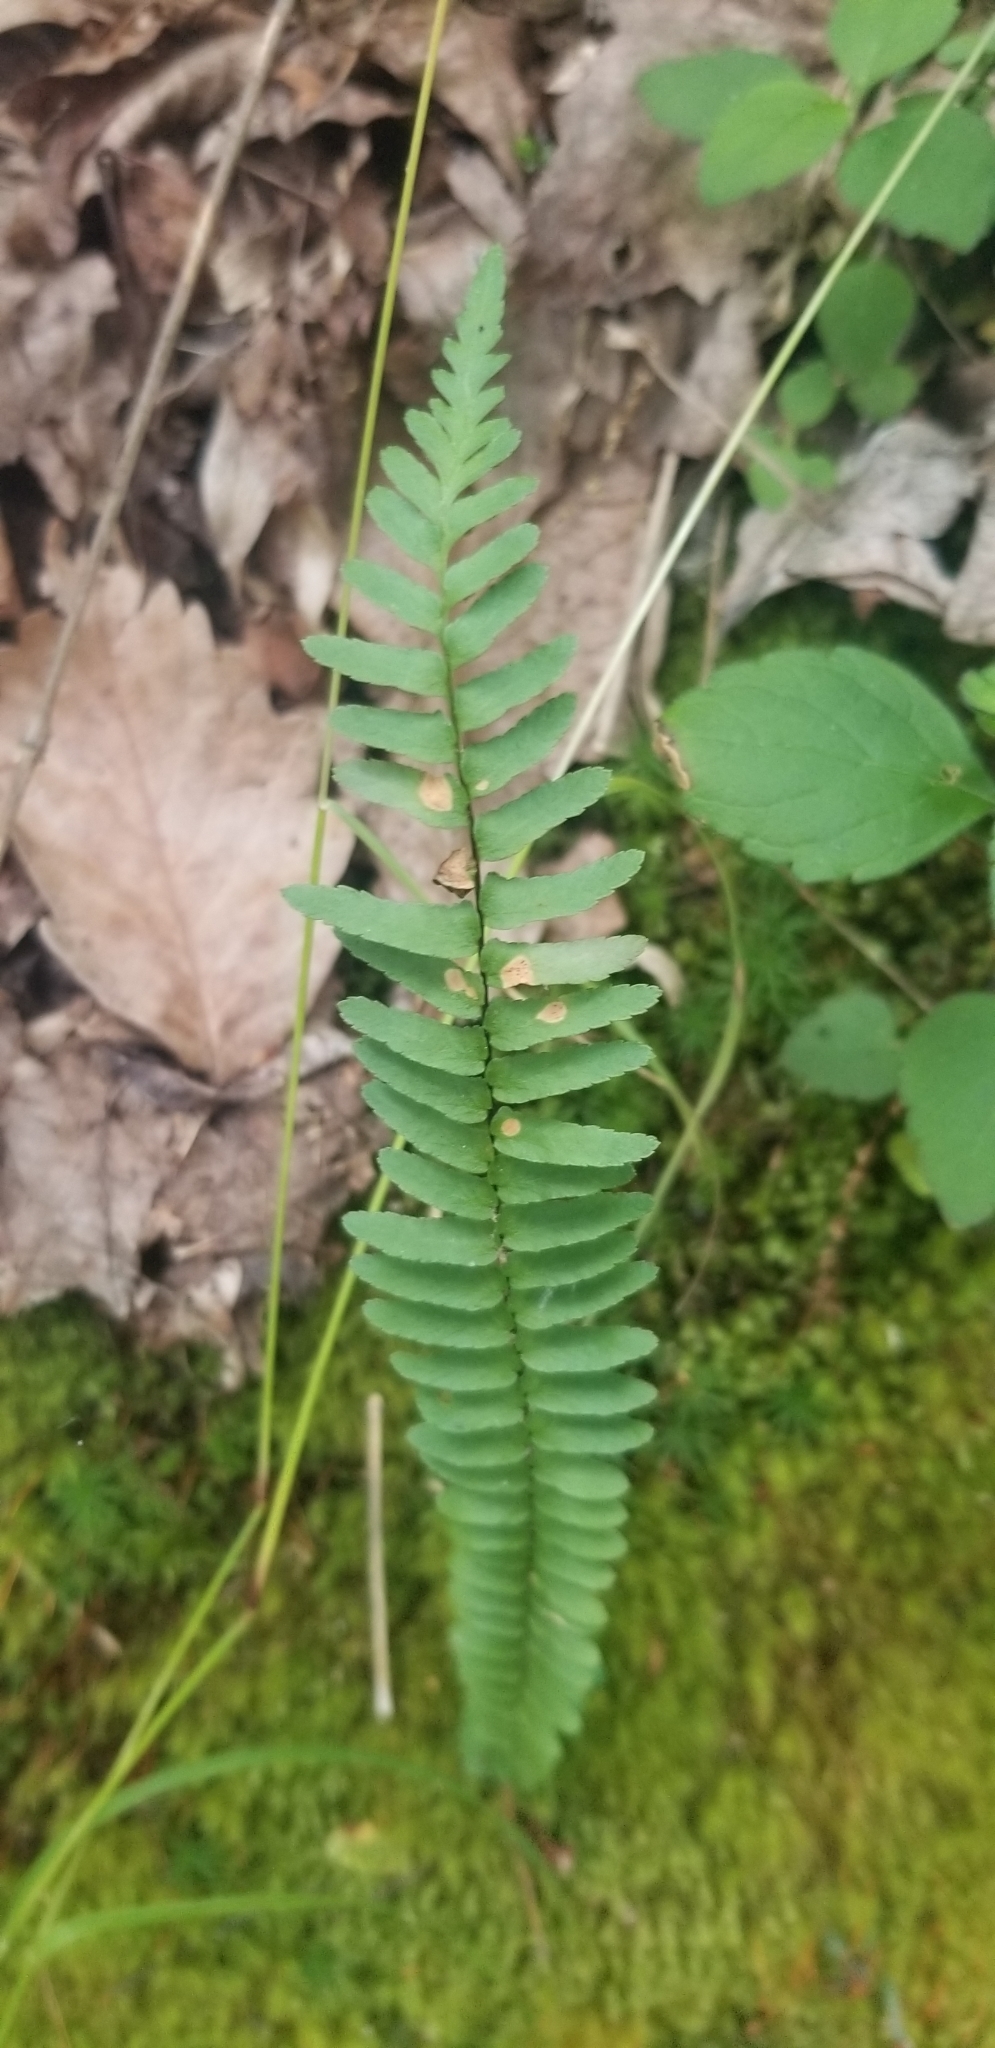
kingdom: Plantae
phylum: Tracheophyta
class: Polypodiopsida
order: Polypodiales
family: Aspleniaceae
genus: Asplenium
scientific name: Asplenium platyneuron
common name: Ebony spleenwort
